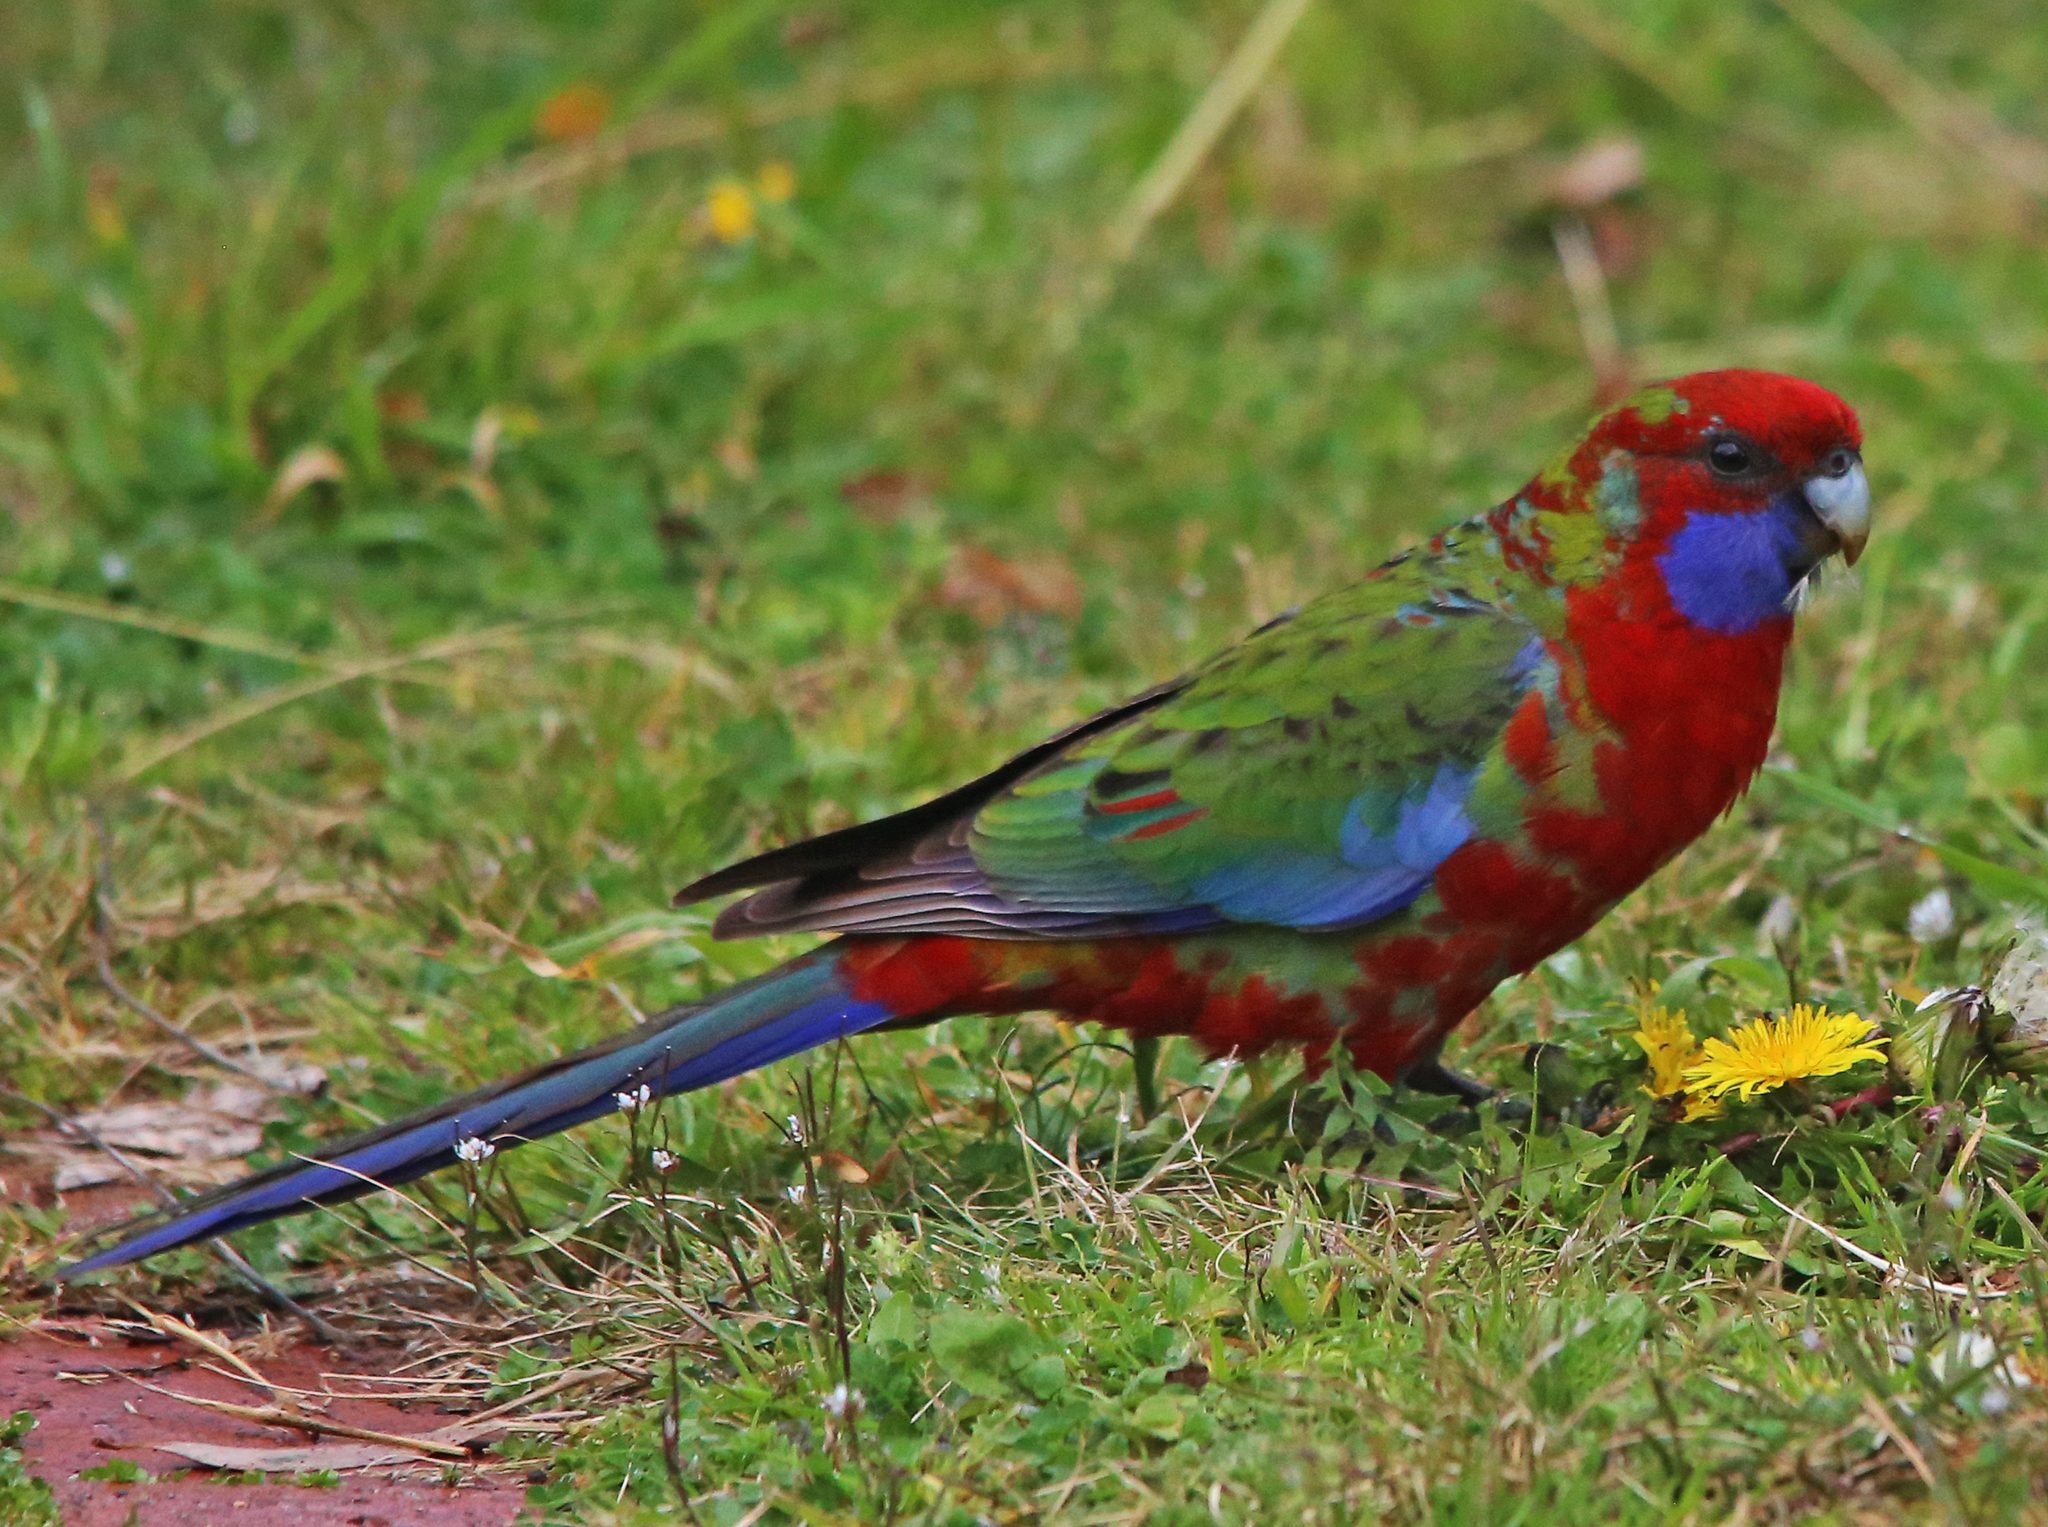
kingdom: Animalia
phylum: Chordata
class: Aves
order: Psittaciformes
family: Psittacidae
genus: Platycercus
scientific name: Platycercus elegans
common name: Crimson rosella
